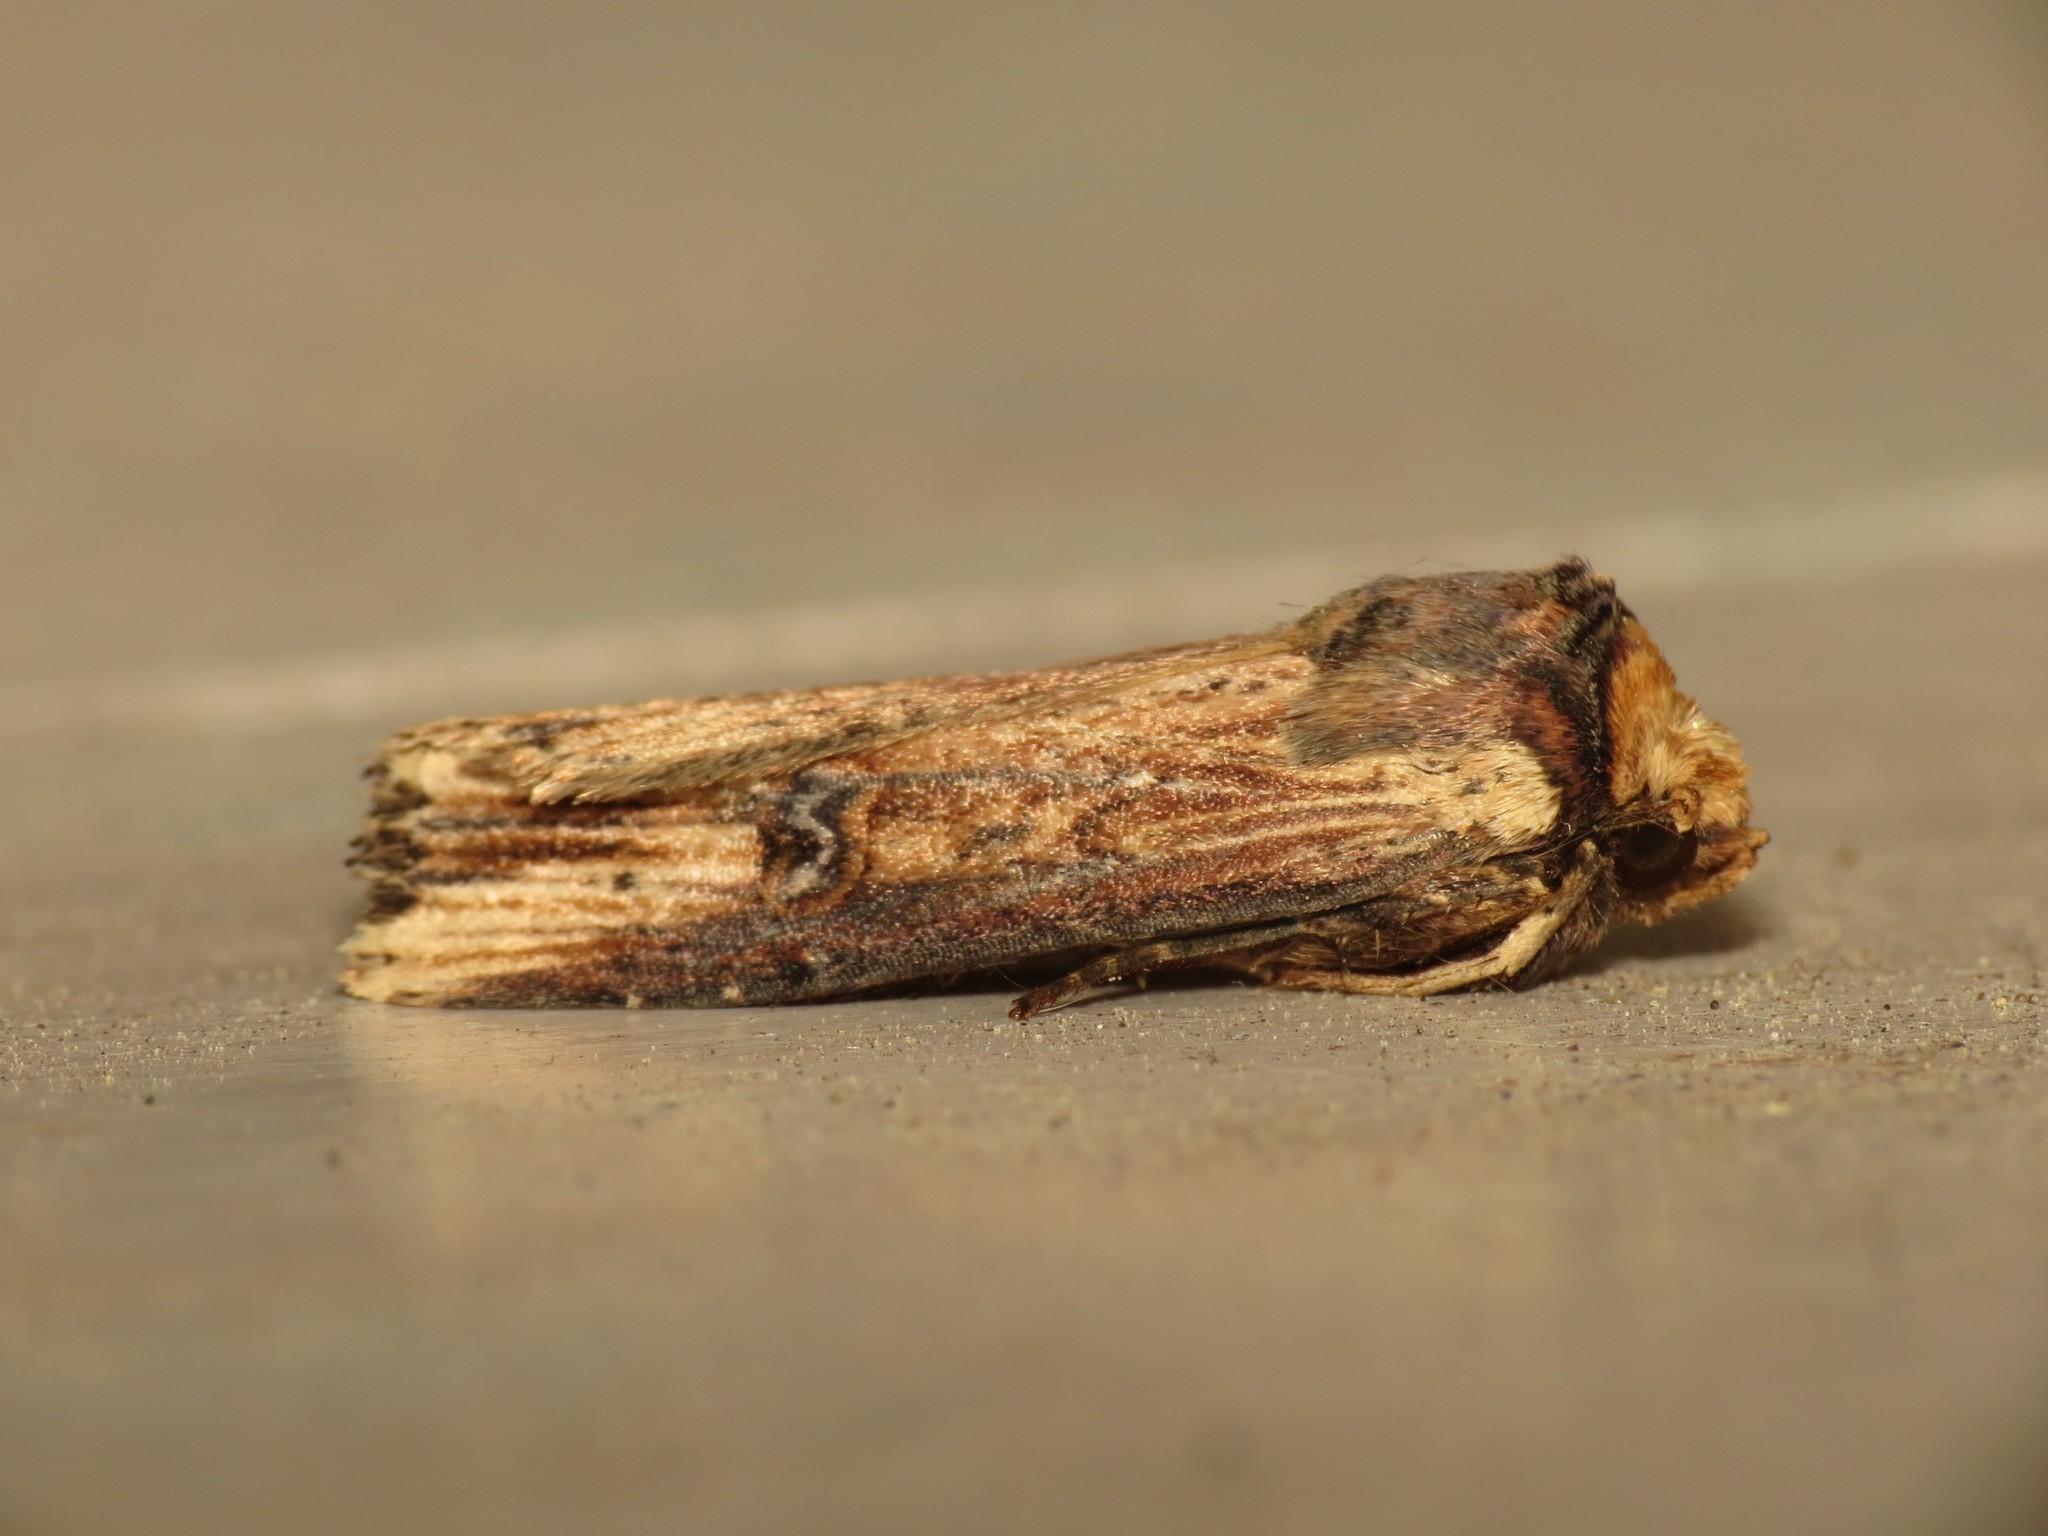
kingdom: Animalia
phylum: Arthropoda
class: Insecta
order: Lepidoptera
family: Noctuidae
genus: Axylia
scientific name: Axylia putris
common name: Flame
